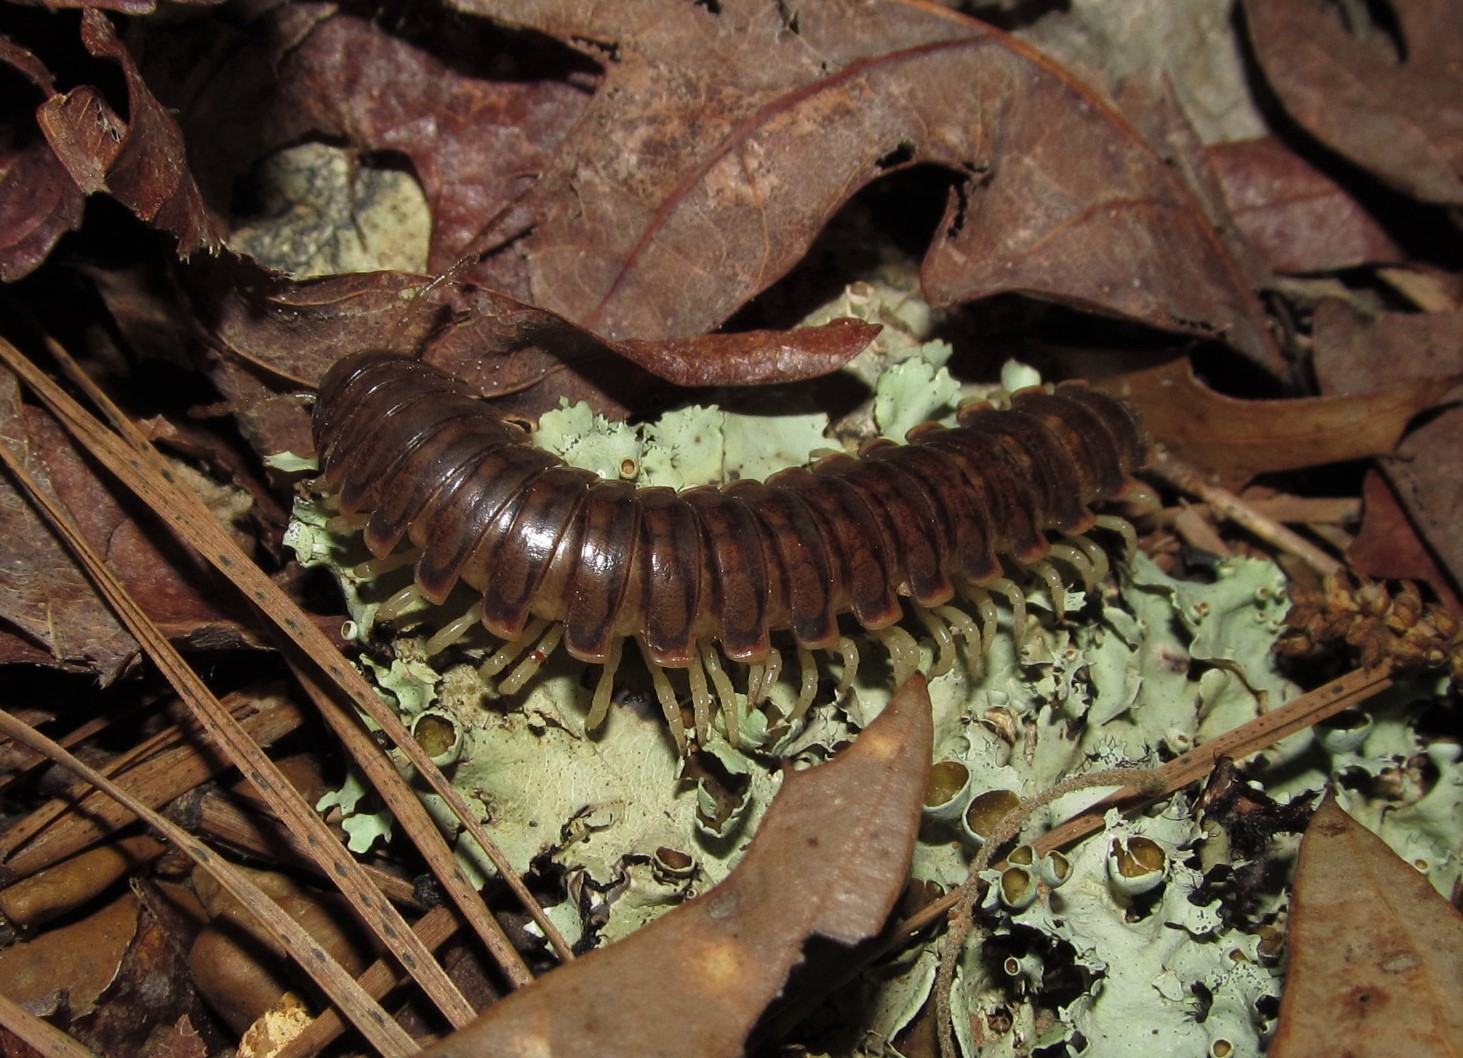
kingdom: Animalia
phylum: Arthropoda
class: Diplopoda
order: Polydesmida
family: Xystodesmidae
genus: Dicellarius
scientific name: Dicellarius bimaculatus
